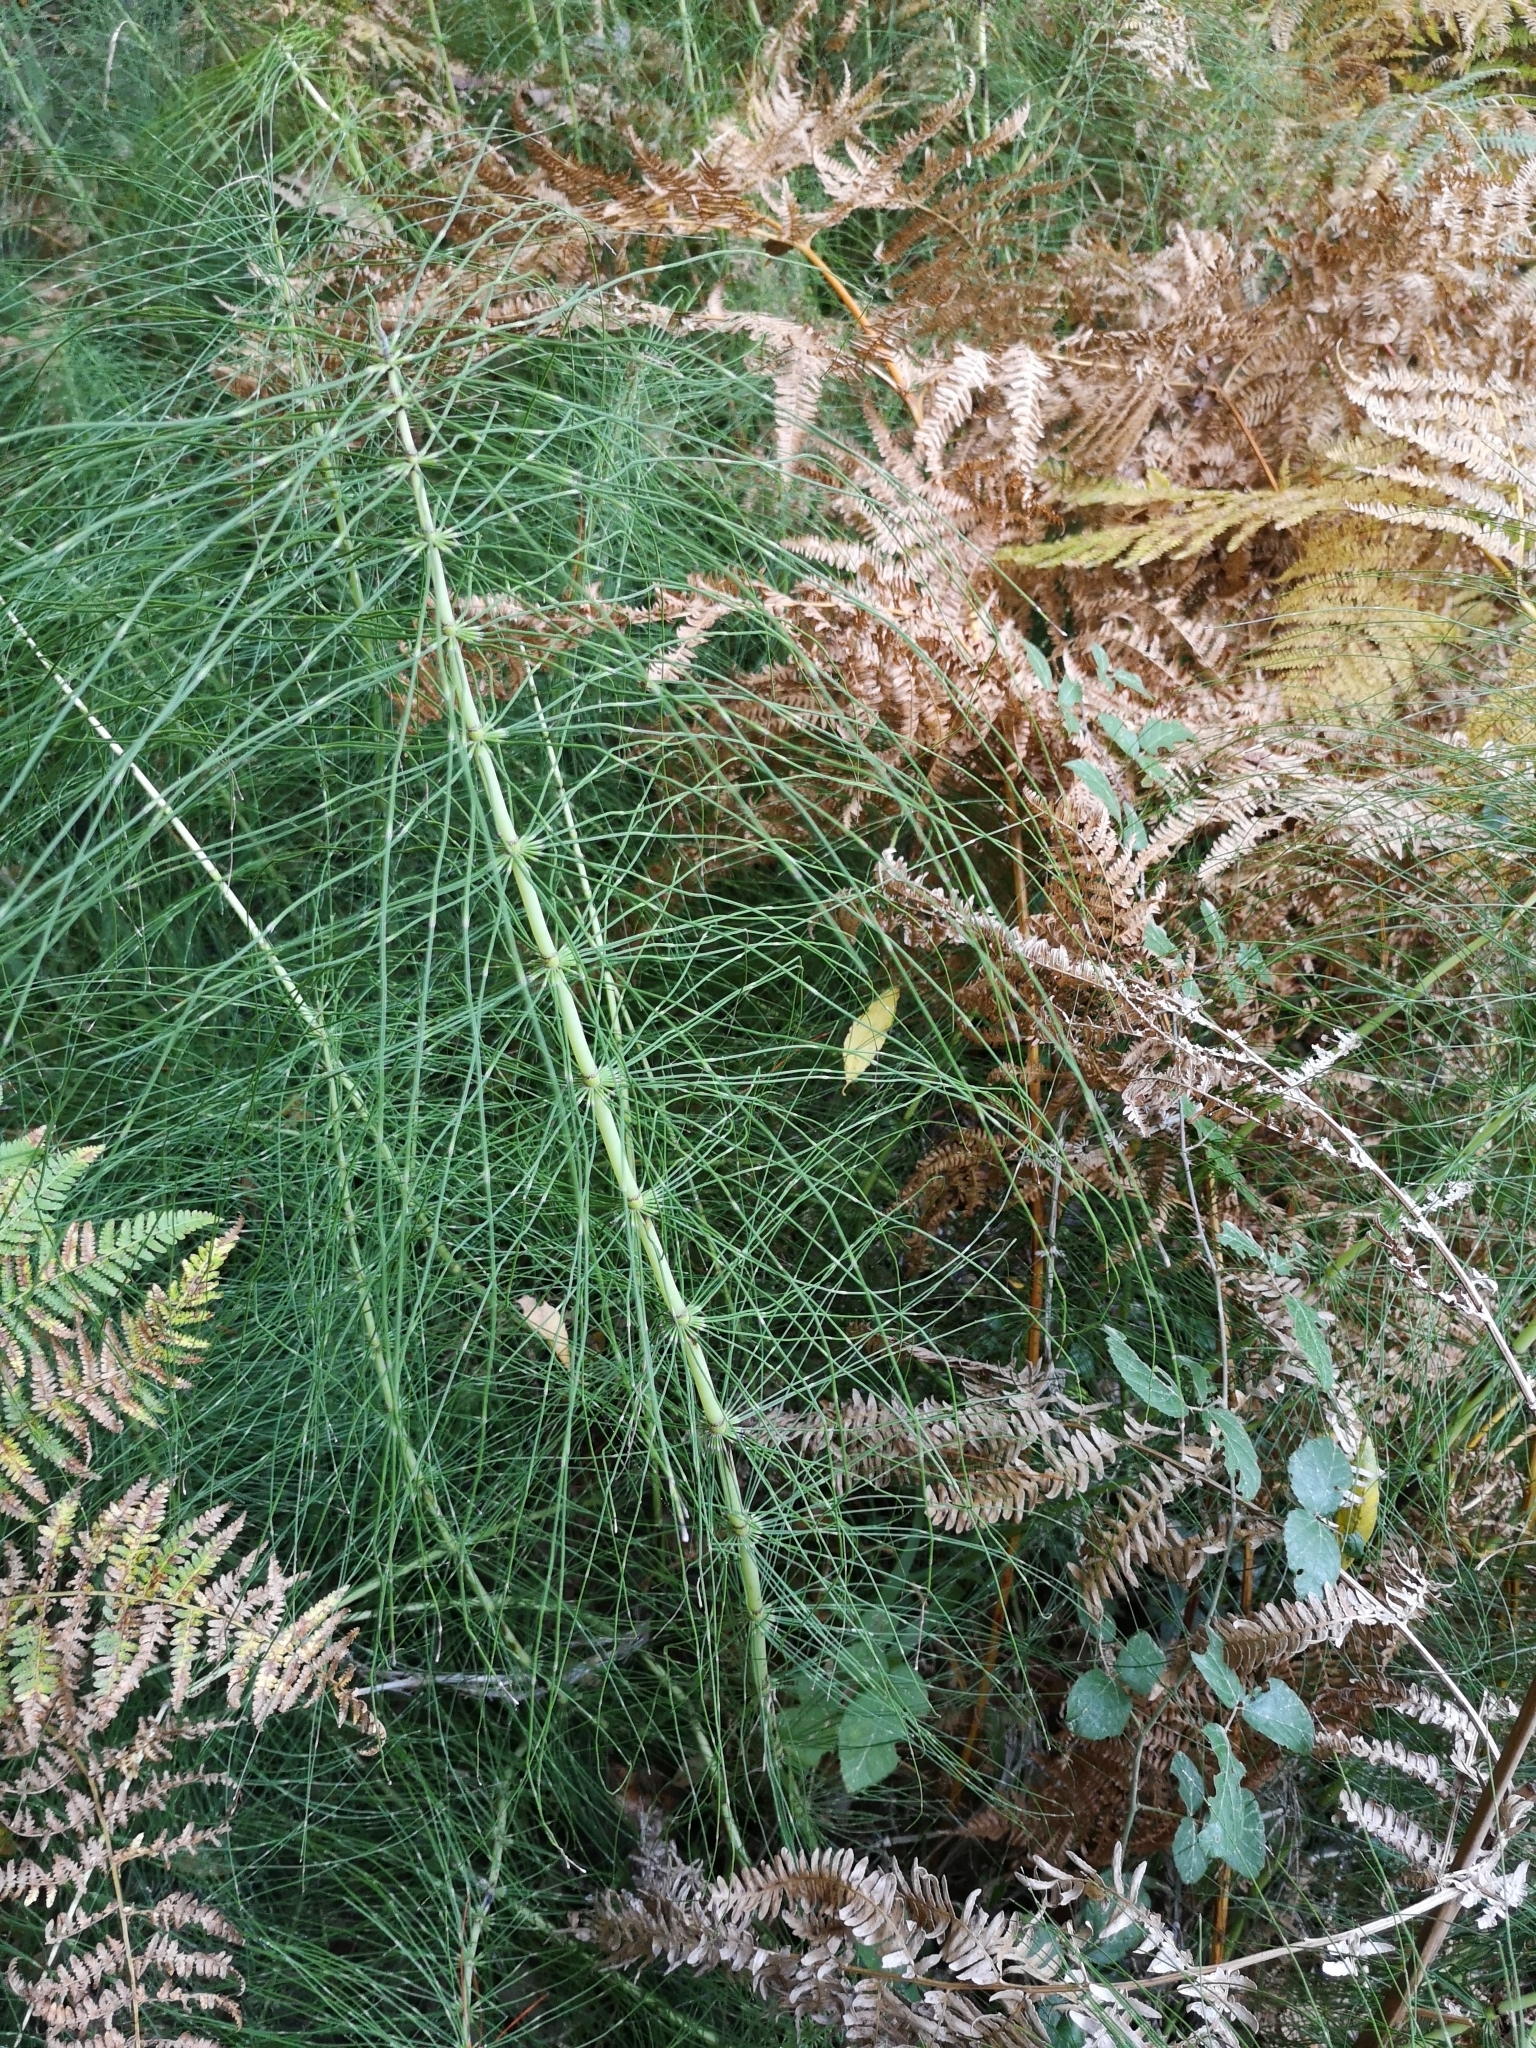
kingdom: Plantae
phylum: Tracheophyta
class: Polypodiopsida
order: Equisetales
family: Equisetaceae
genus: Equisetum
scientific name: Equisetum telmateia
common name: Great horsetail
